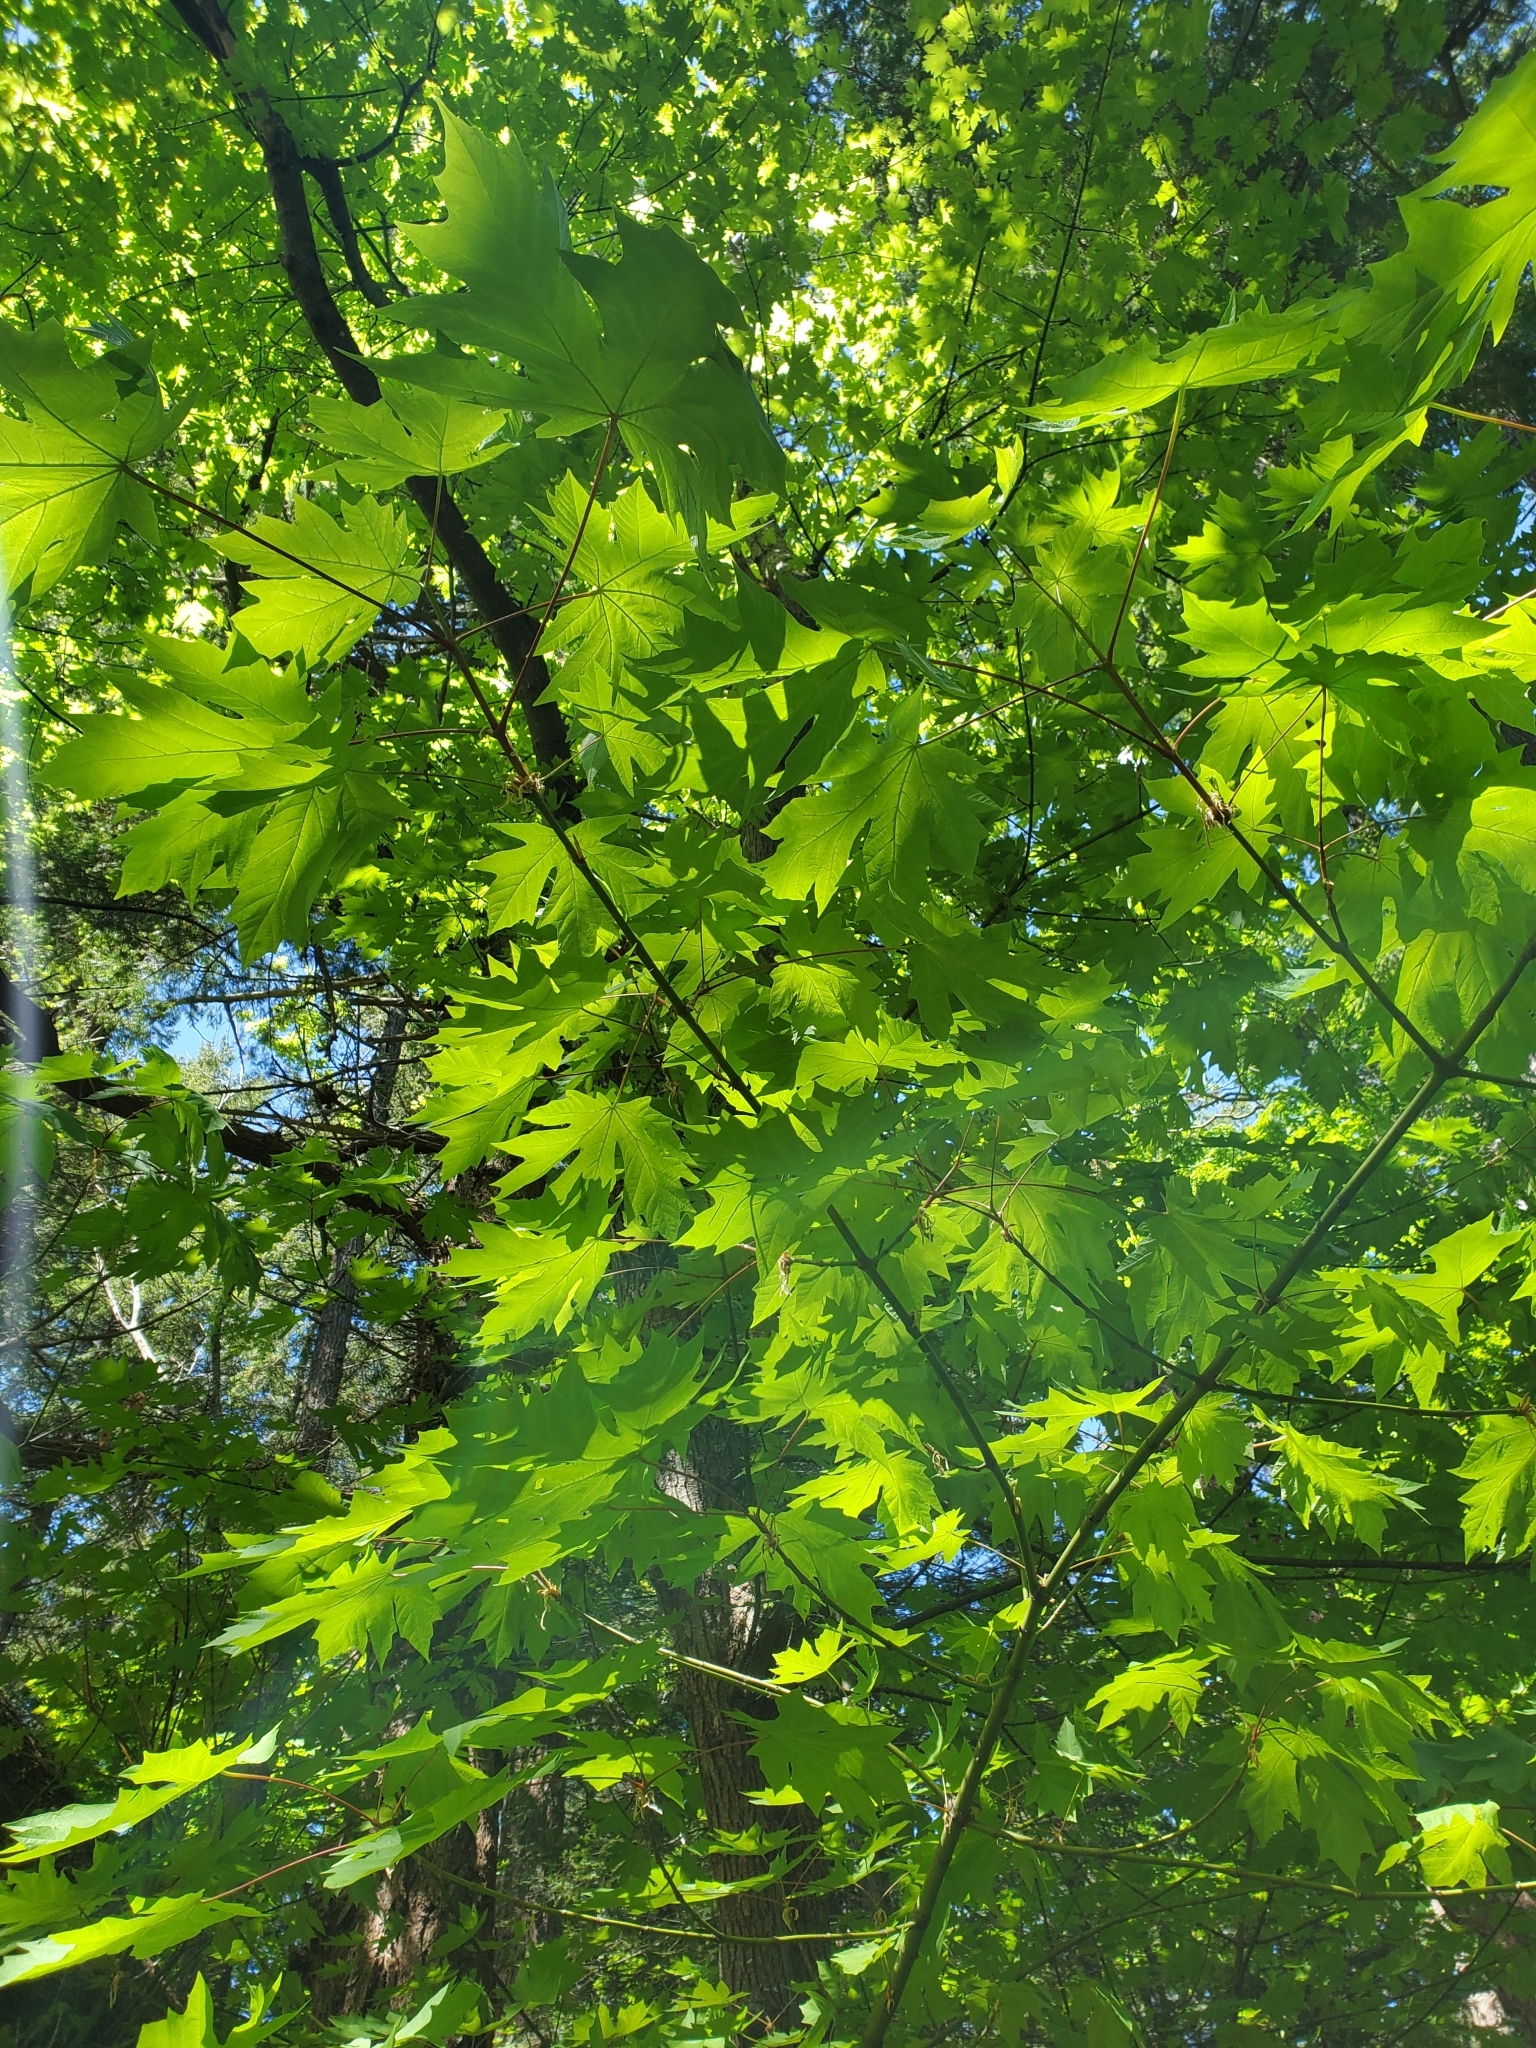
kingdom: Plantae
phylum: Tracheophyta
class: Magnoliopsida
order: Sapindales
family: Sapindaceae
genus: Acer
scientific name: Acer macrophyllum
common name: Oregon maple
